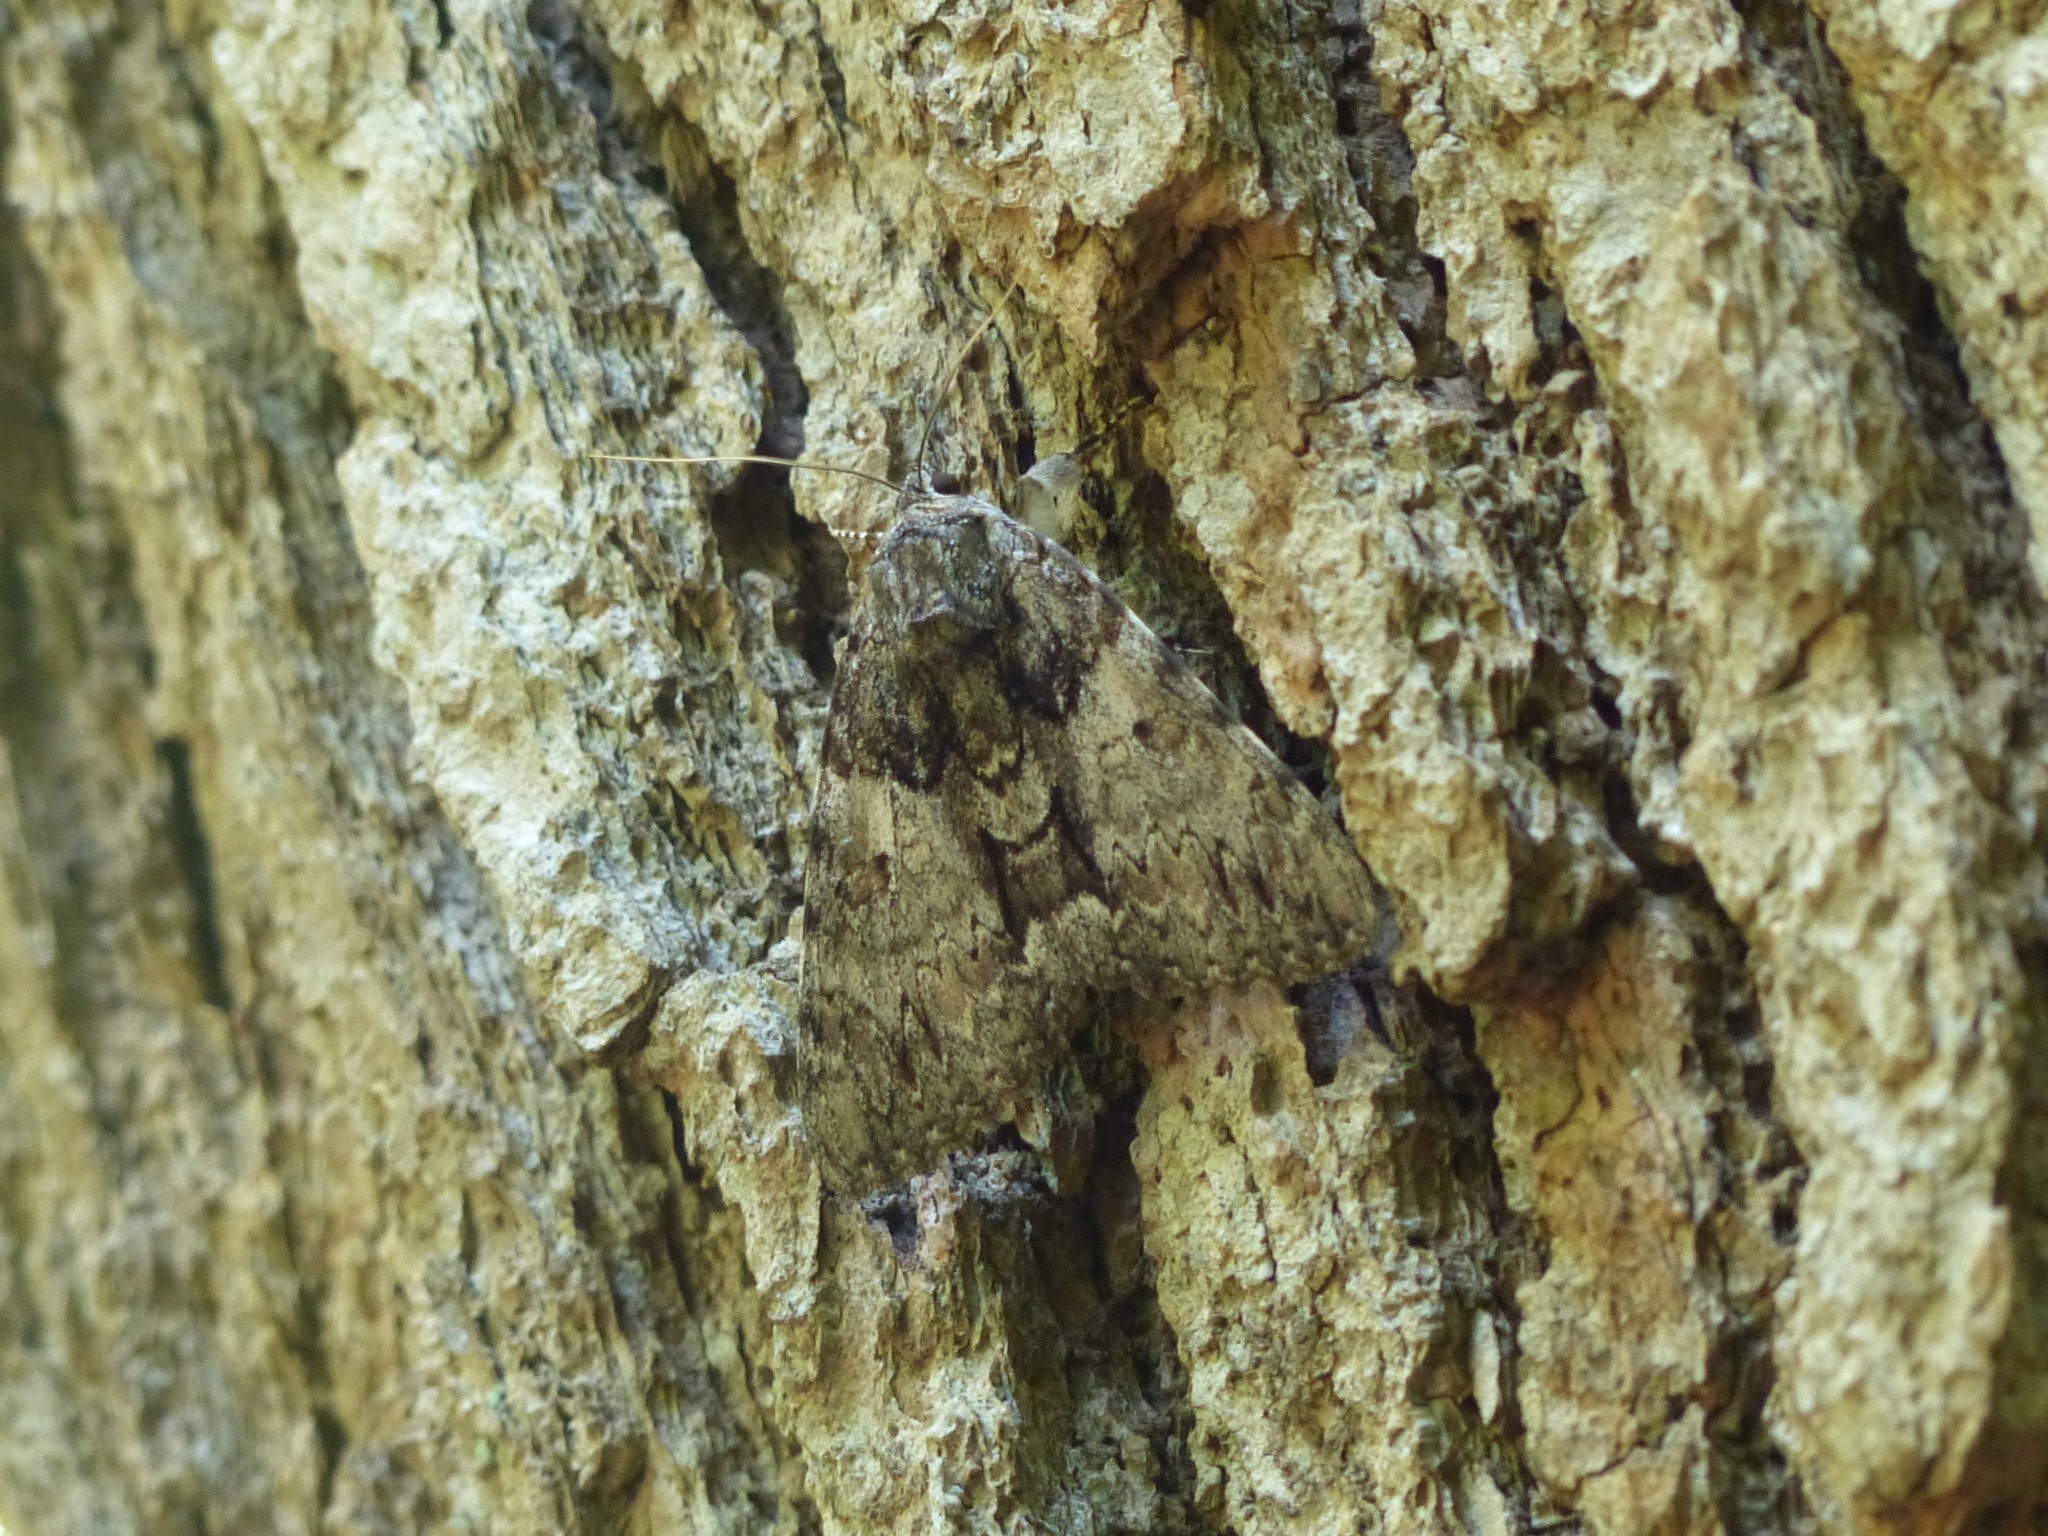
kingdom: Animalia
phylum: Arthropoda
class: Insecta
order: Lepidoptera
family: Erebidae
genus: Catocala
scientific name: Catocala palaeogama
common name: Oldwife underwing
